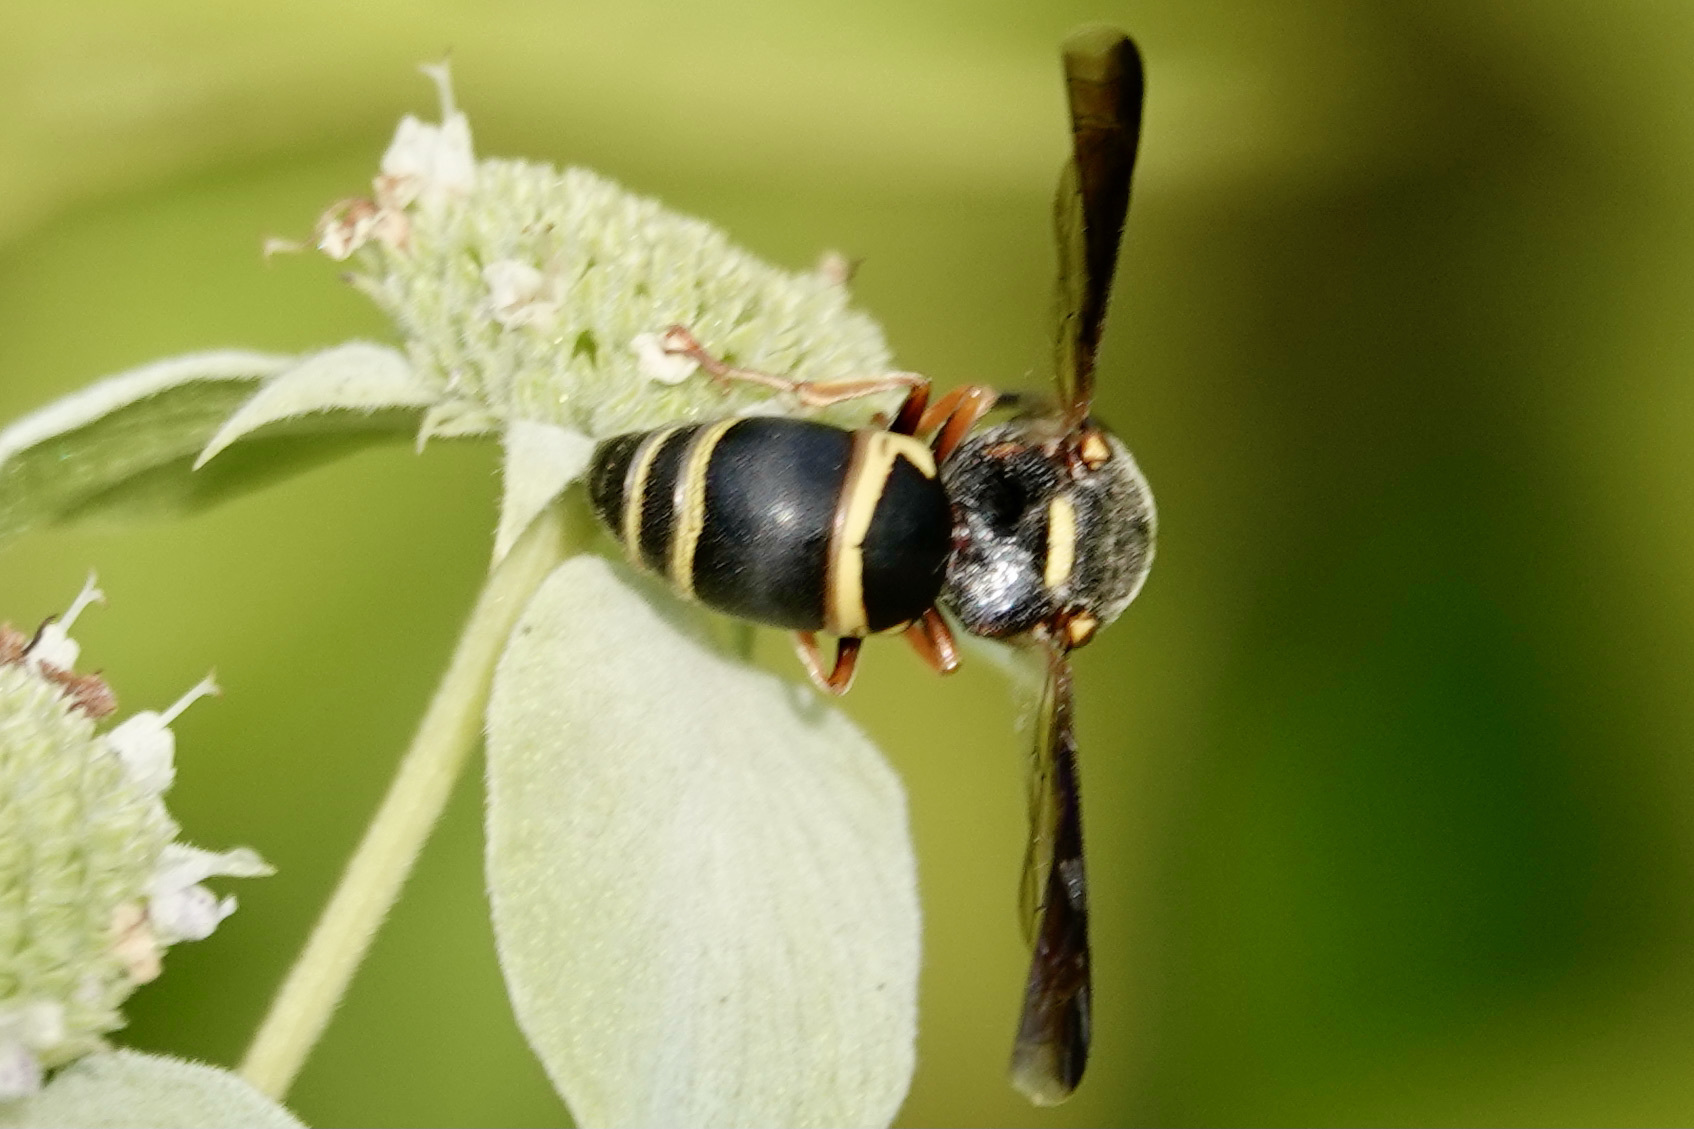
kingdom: Animalia
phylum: Arthropoda
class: Insecta
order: Hymenoptera
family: Eumenidae
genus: Euodynerus
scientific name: Euodynerus hidalgo
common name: Wasp
